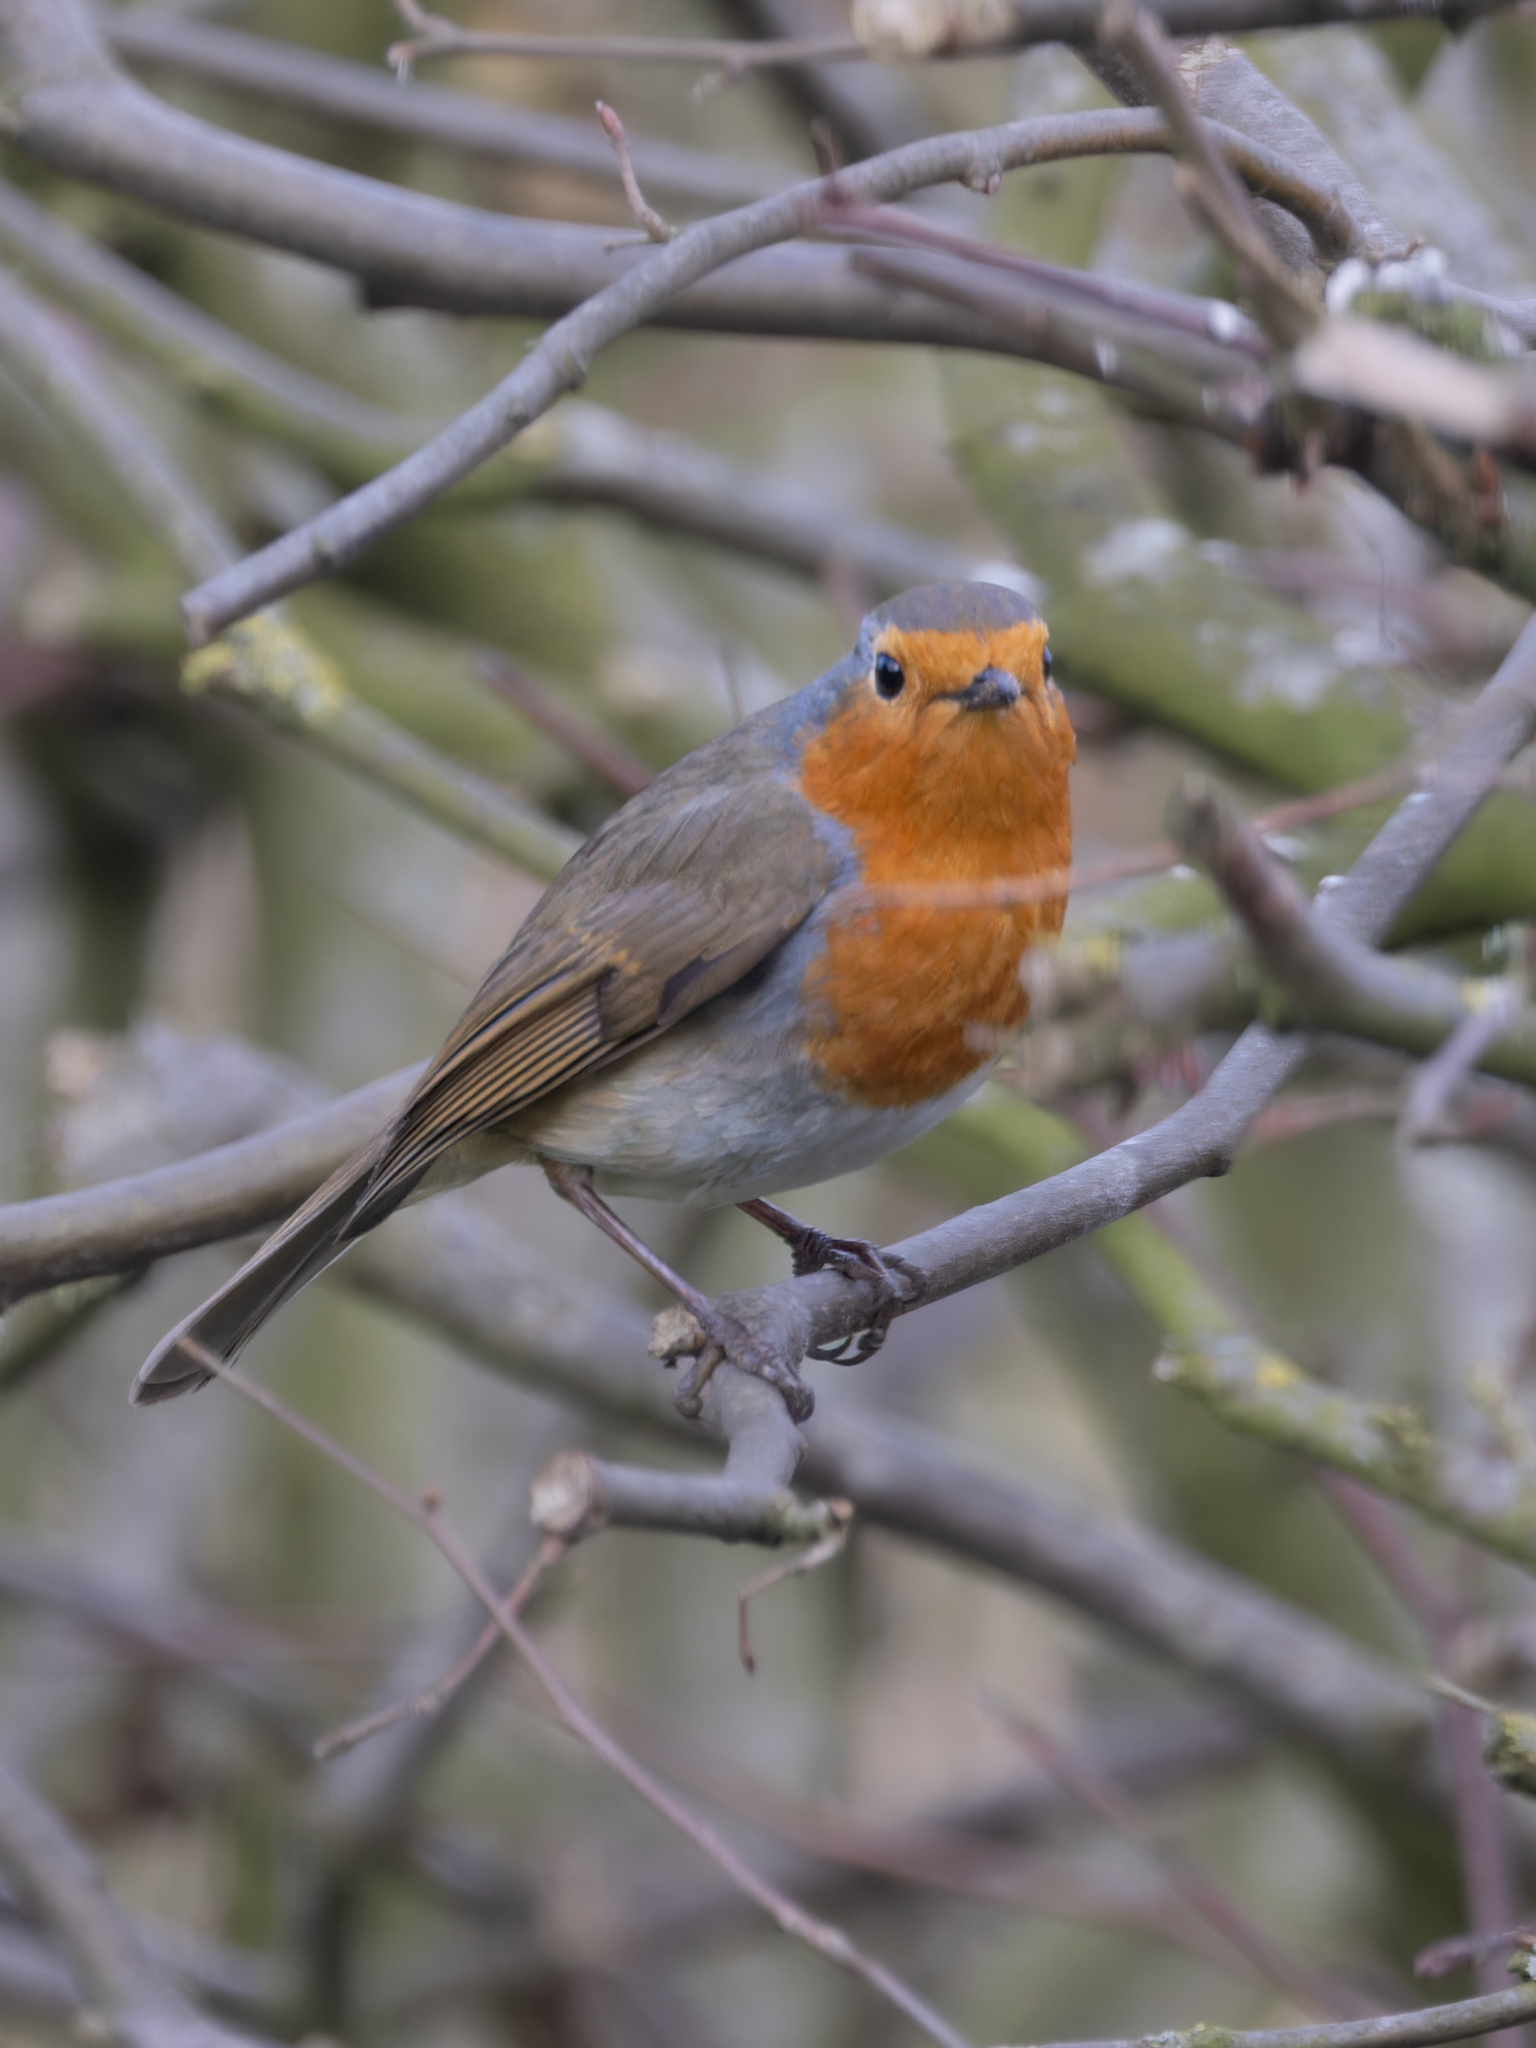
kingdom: Animalia
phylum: Chordata
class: Aves
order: Passeriformes
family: Muscicapidae
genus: Erithacus
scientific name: Erithacus rubecula
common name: European robin
